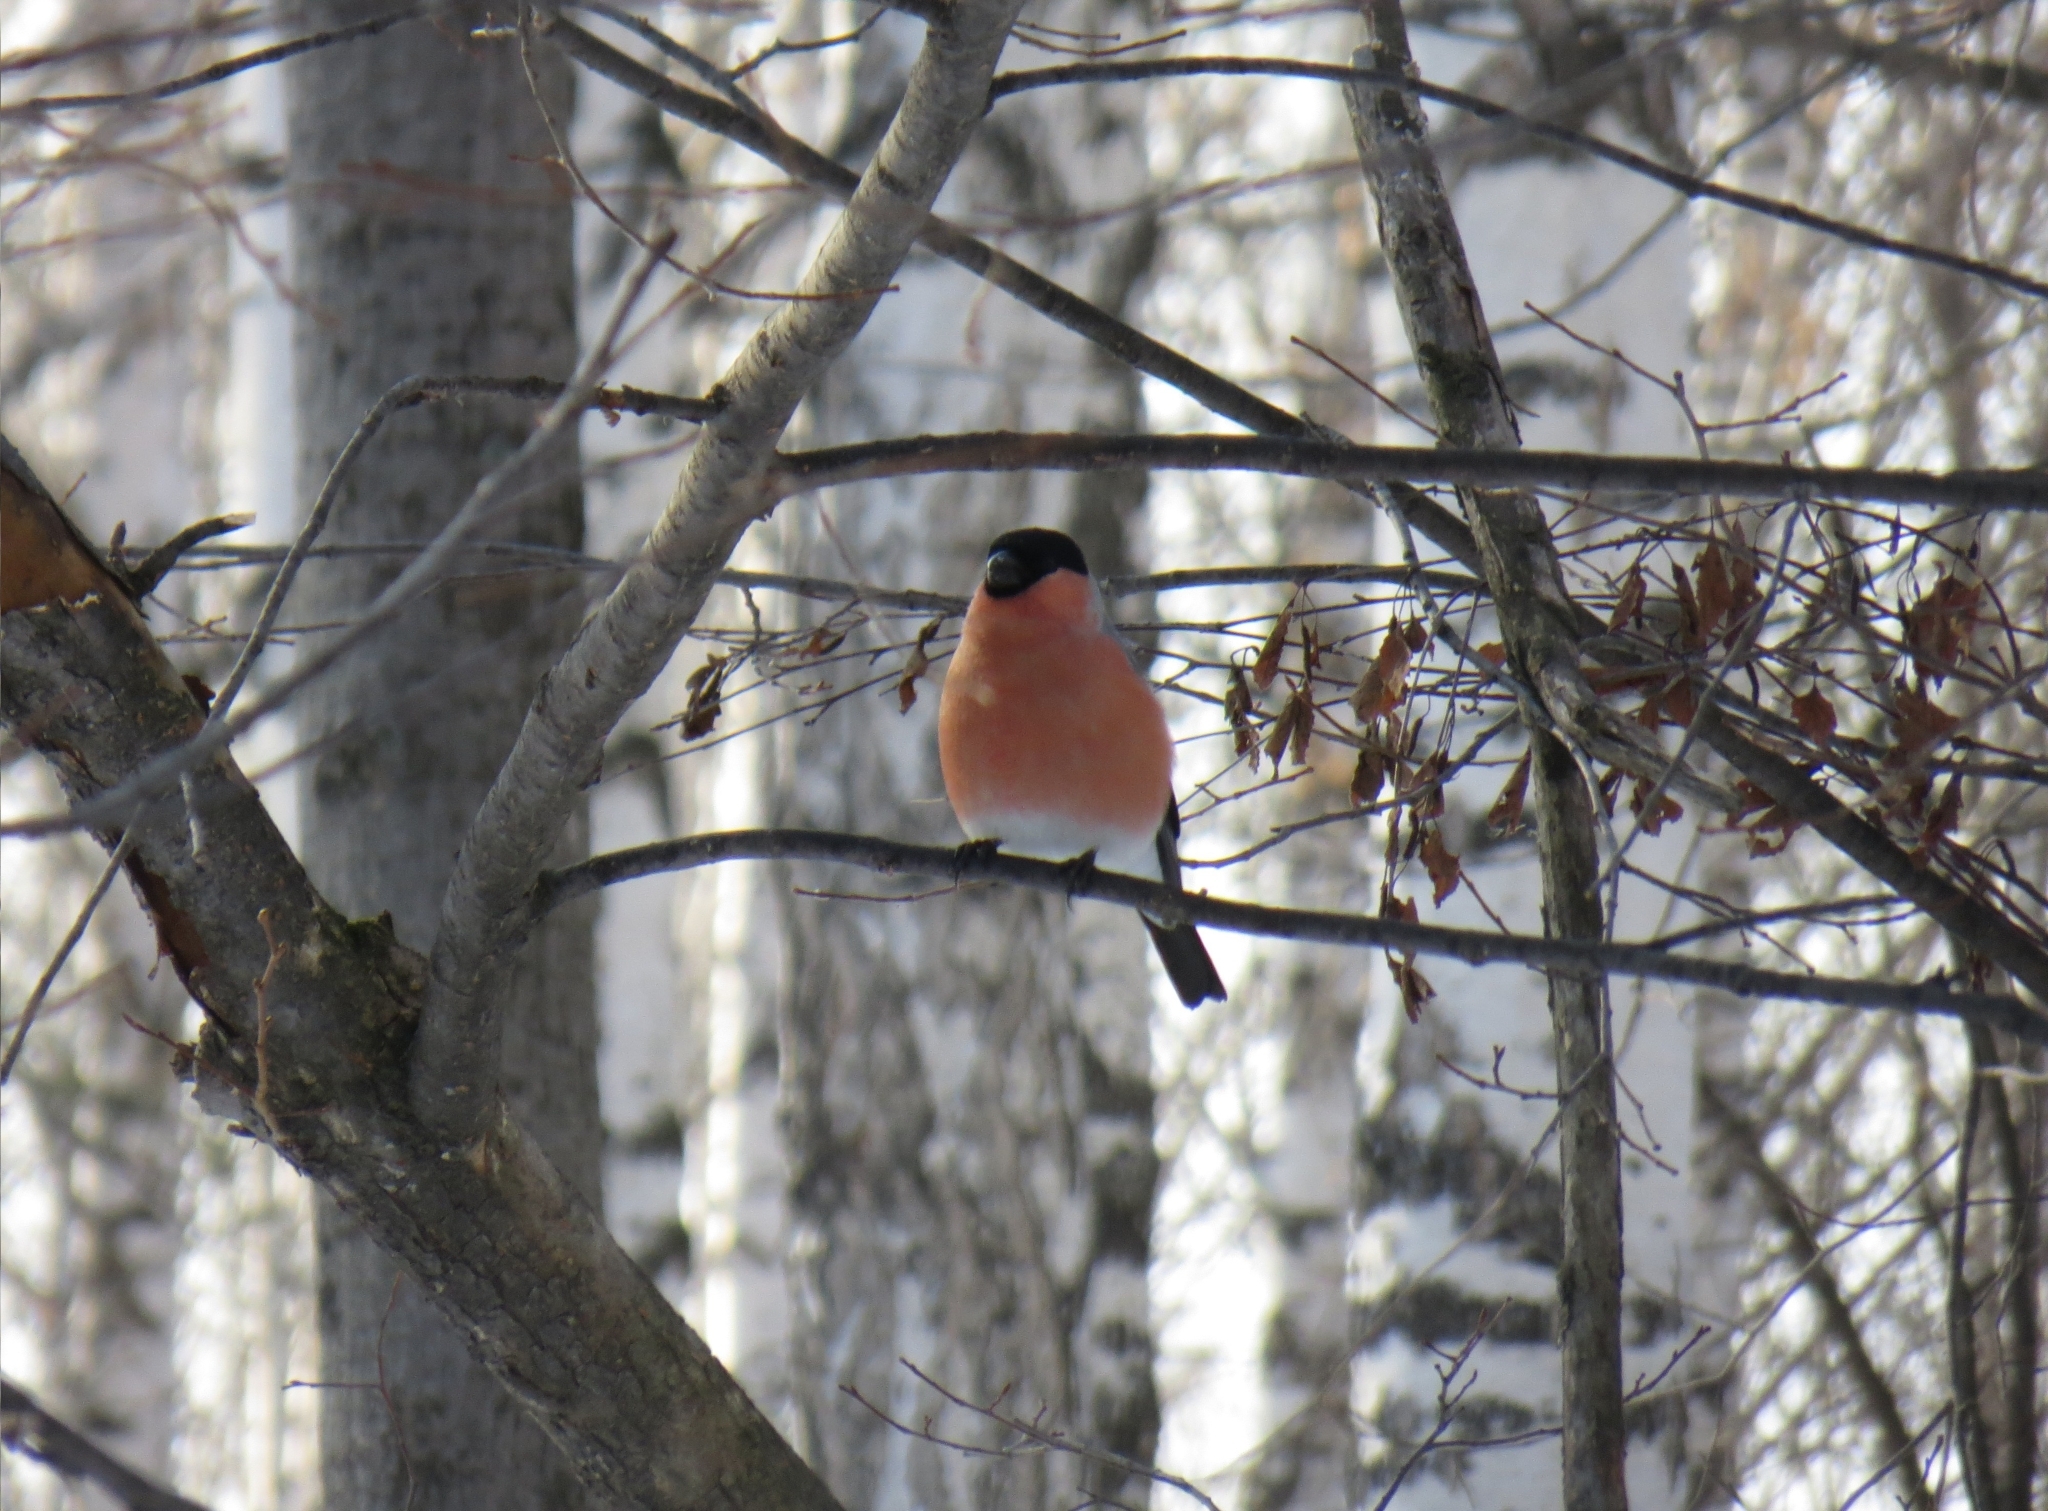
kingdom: Animalia
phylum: Chordata
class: Aves
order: Passeriformes
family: Fringillidae
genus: Pyrrhula
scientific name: Pyrrhula pyrrhula
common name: Eurasian bullfinch
